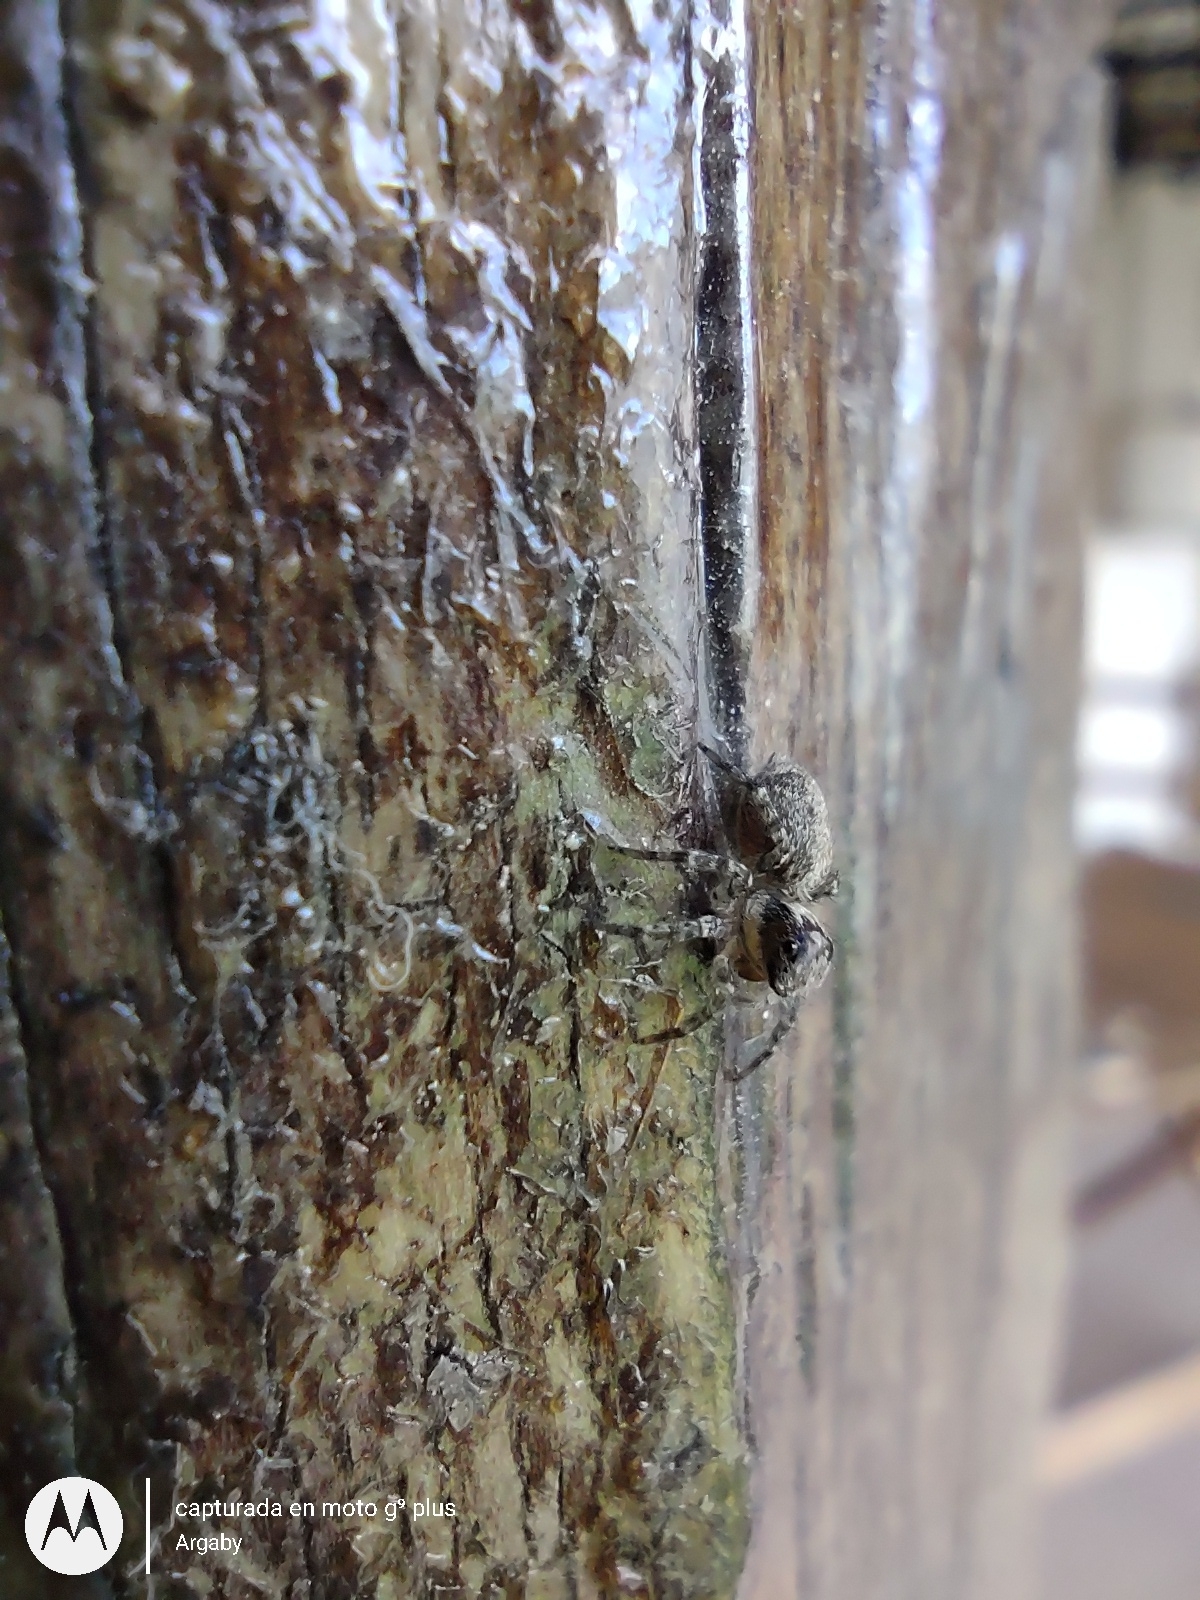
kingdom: Animalia
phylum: Arthropoda
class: Arachnida
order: Araneae
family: Salticidae
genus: Saitis
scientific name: Saitis variegatus
